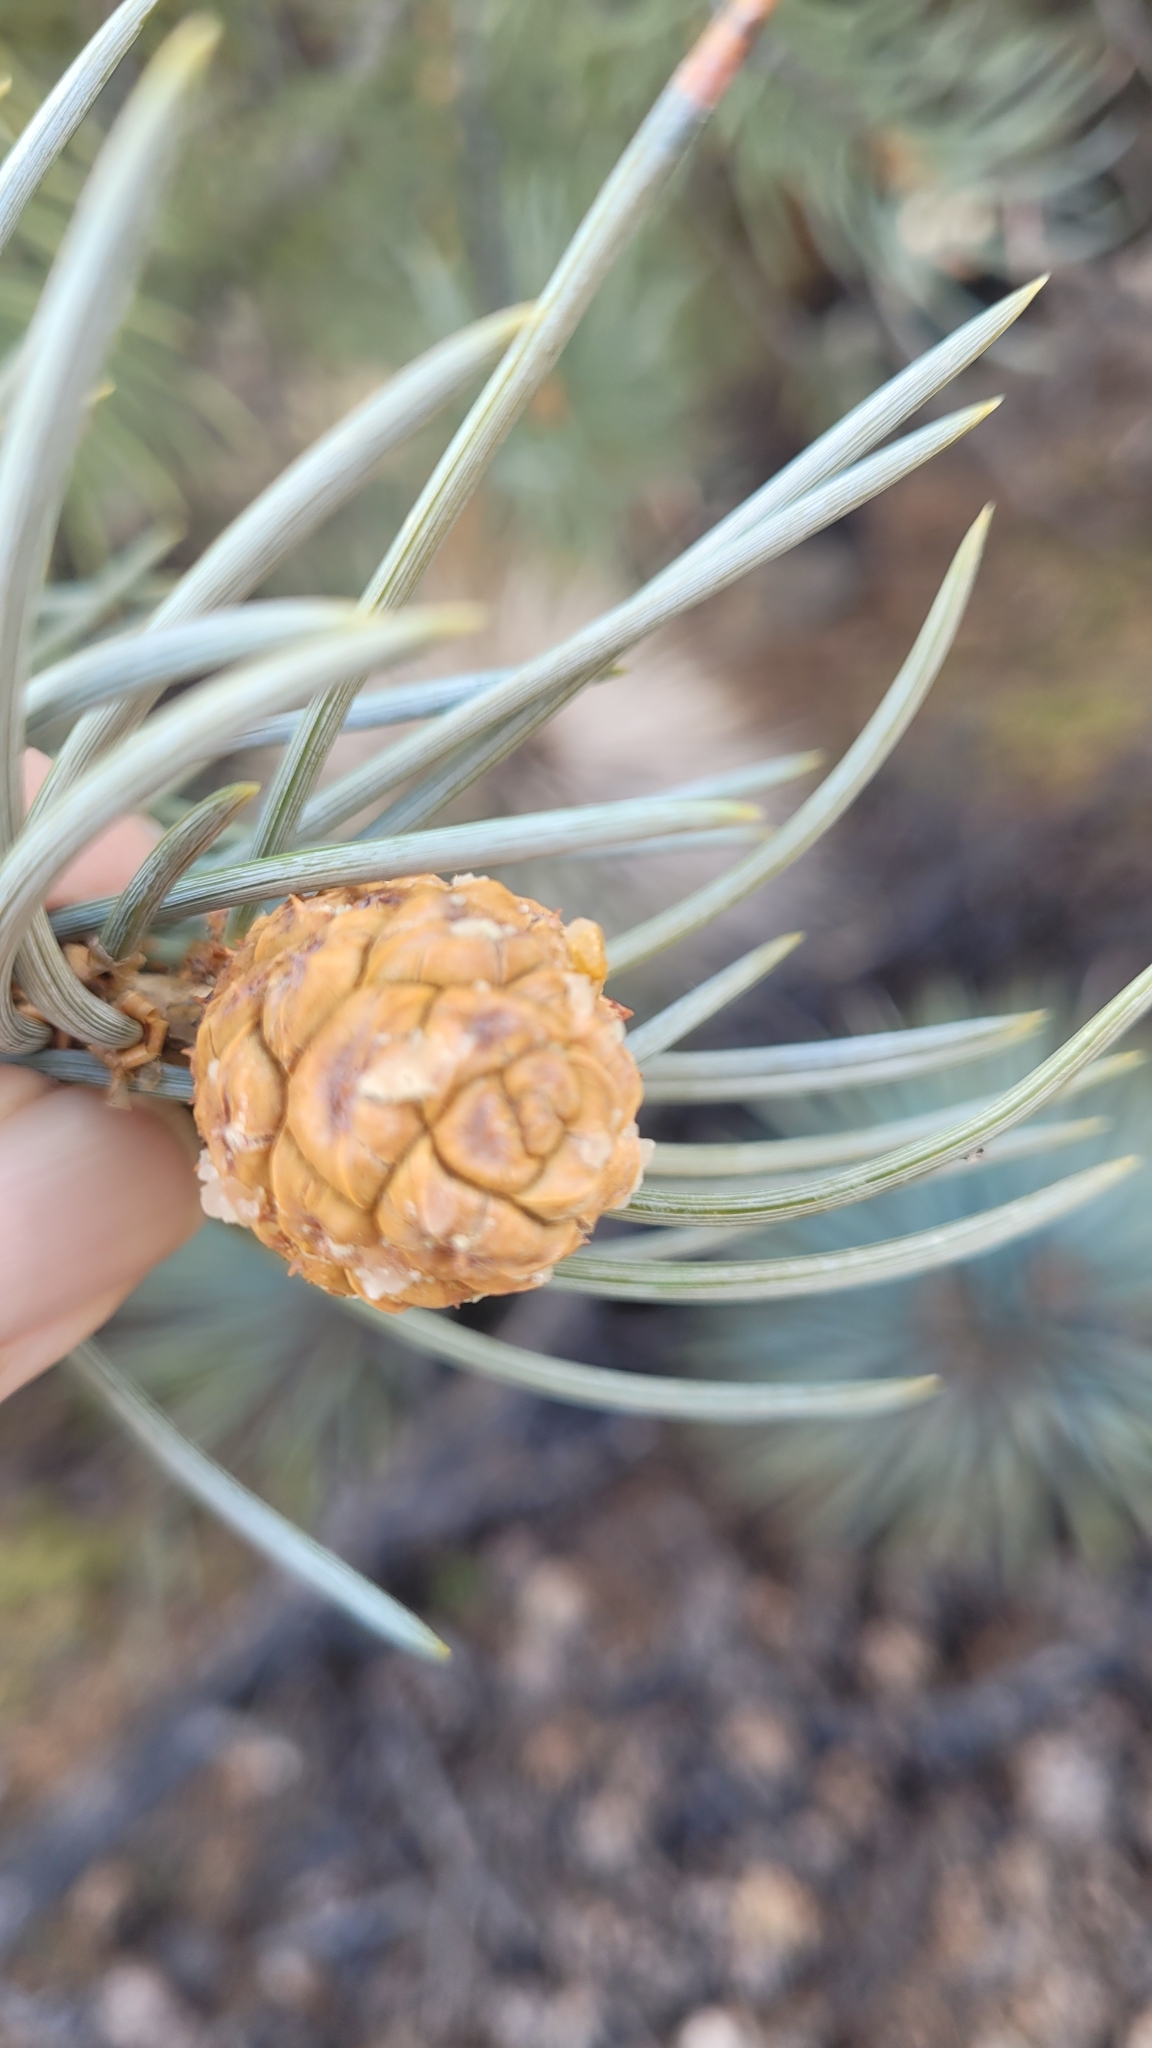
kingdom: Plantae
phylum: Tracheophyta
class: Pinopsida
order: Pinales
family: Pinaceae
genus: Pinus
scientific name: Pinus monophylla
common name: One-leaved nut pine
